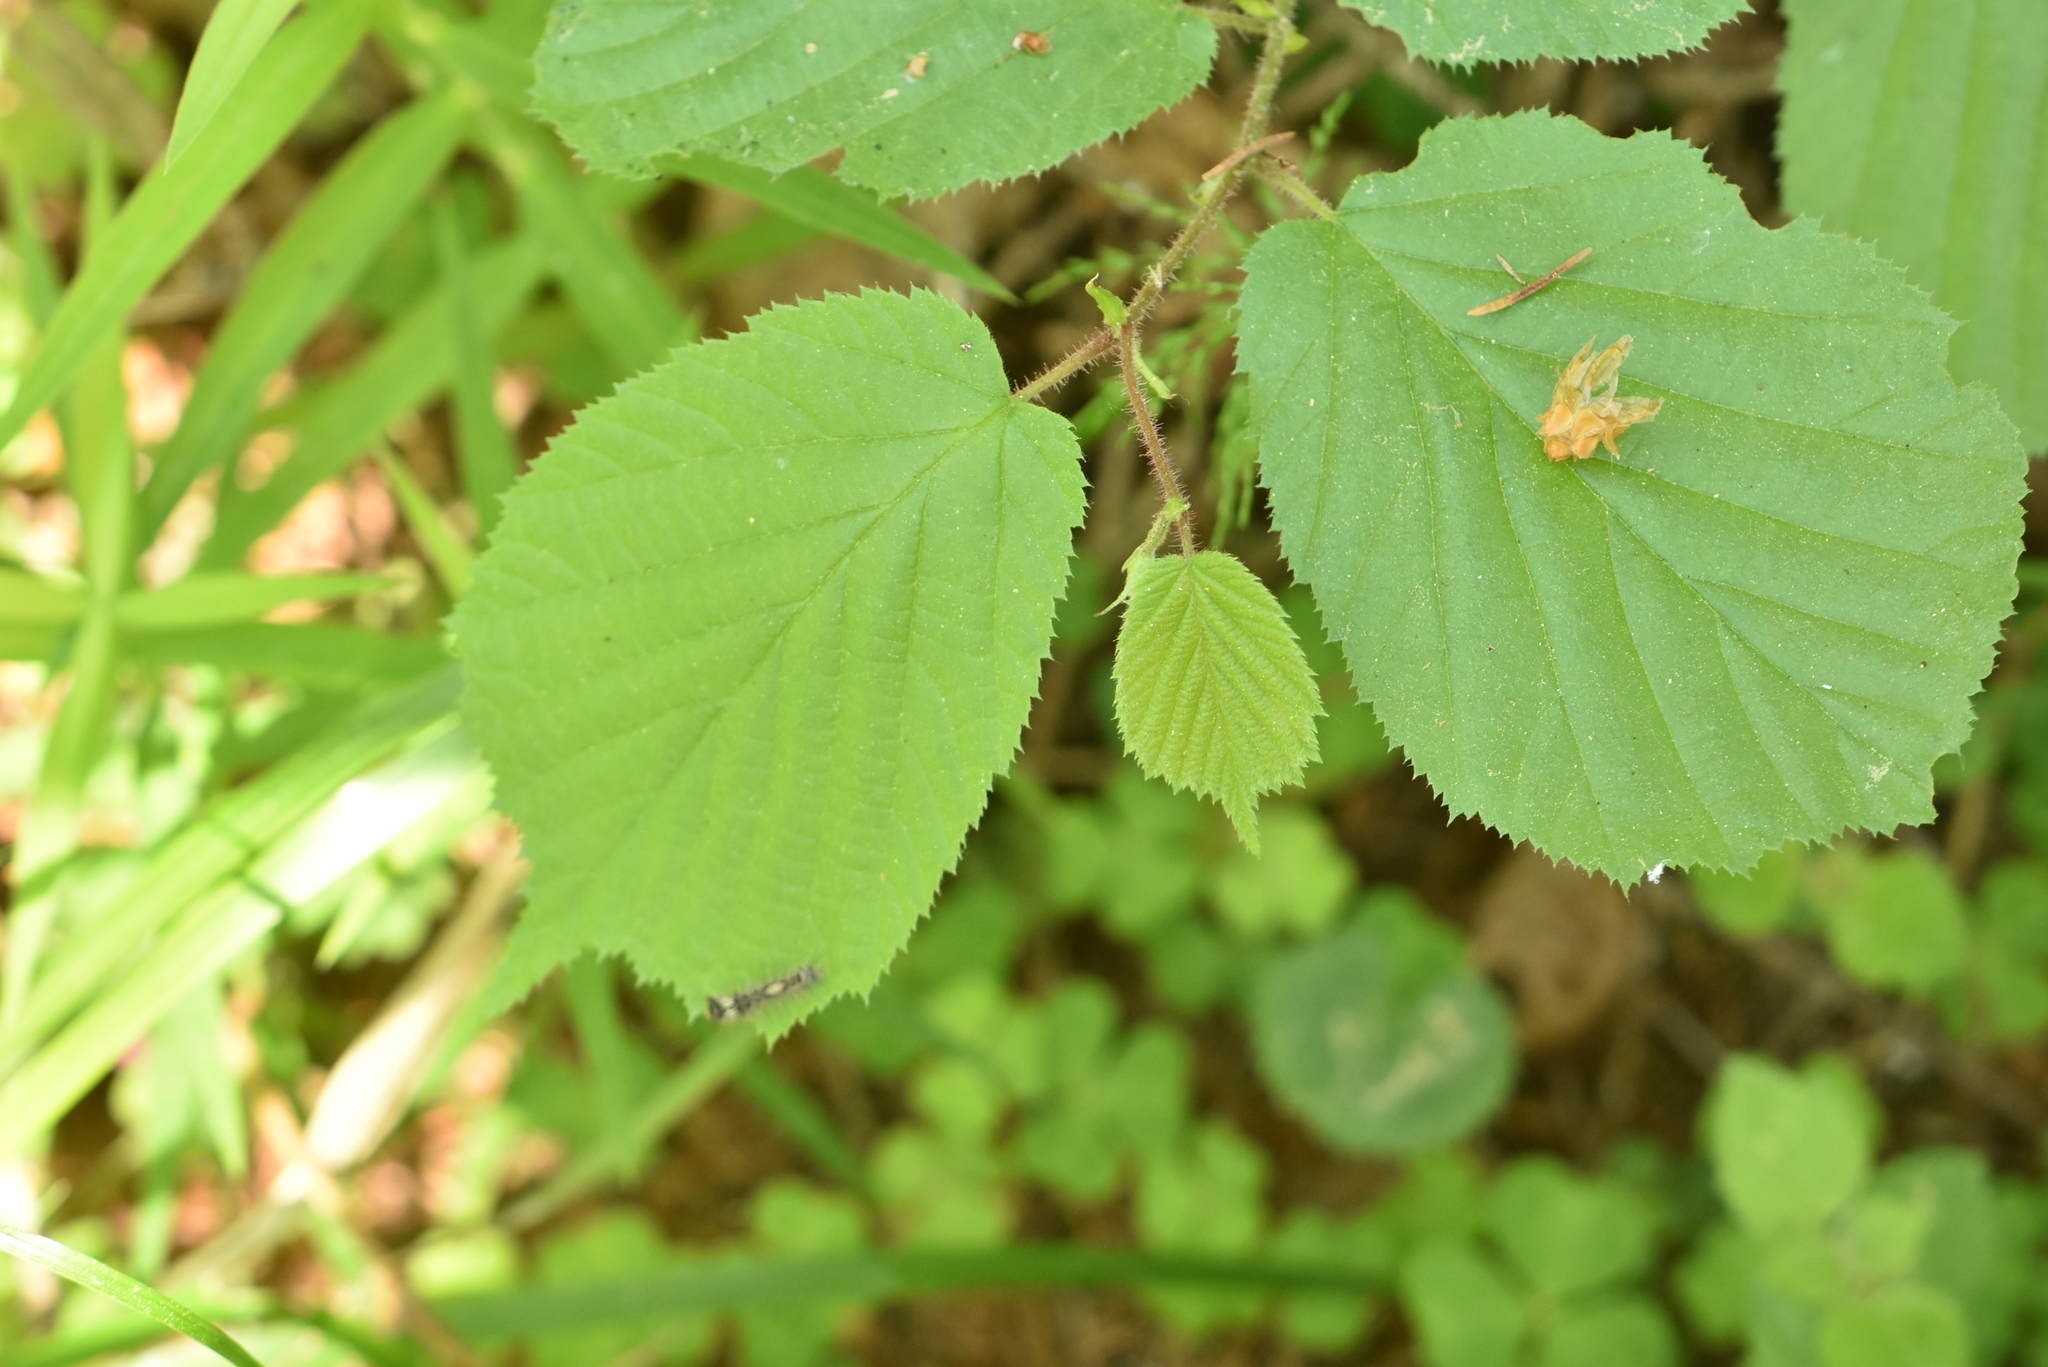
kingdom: Plantae
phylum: Tracheophyta
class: Magnoliopsida
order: Fagales
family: Betulaceae
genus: Corylus
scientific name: Corylus avellana
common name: European hazel
